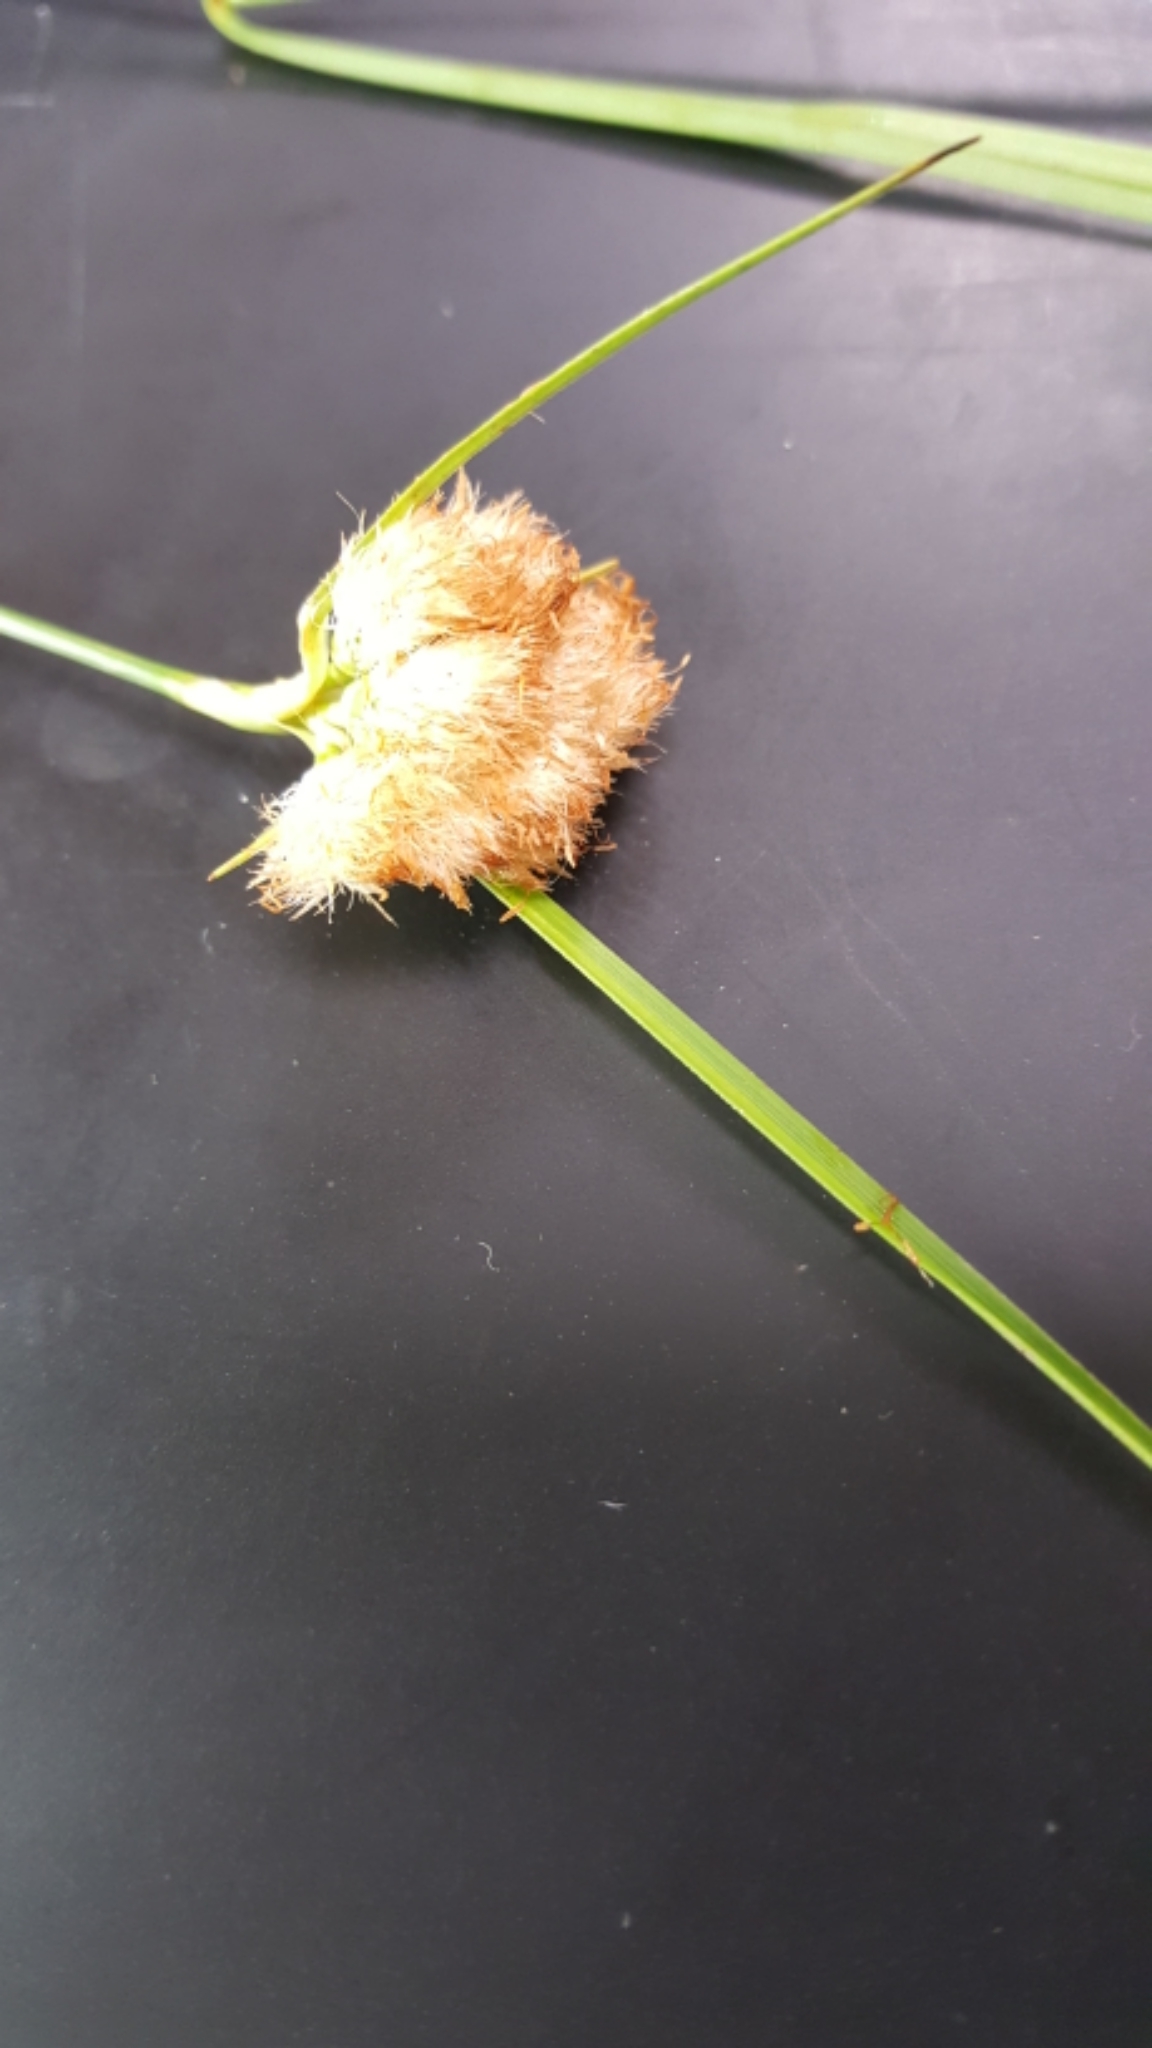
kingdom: Plantae
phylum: Tracheophyta
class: Liliopsida
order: Poales
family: Cyperaceae
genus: Eriophorum
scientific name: Eriophorum virginicum
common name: Tawny cottongrass
